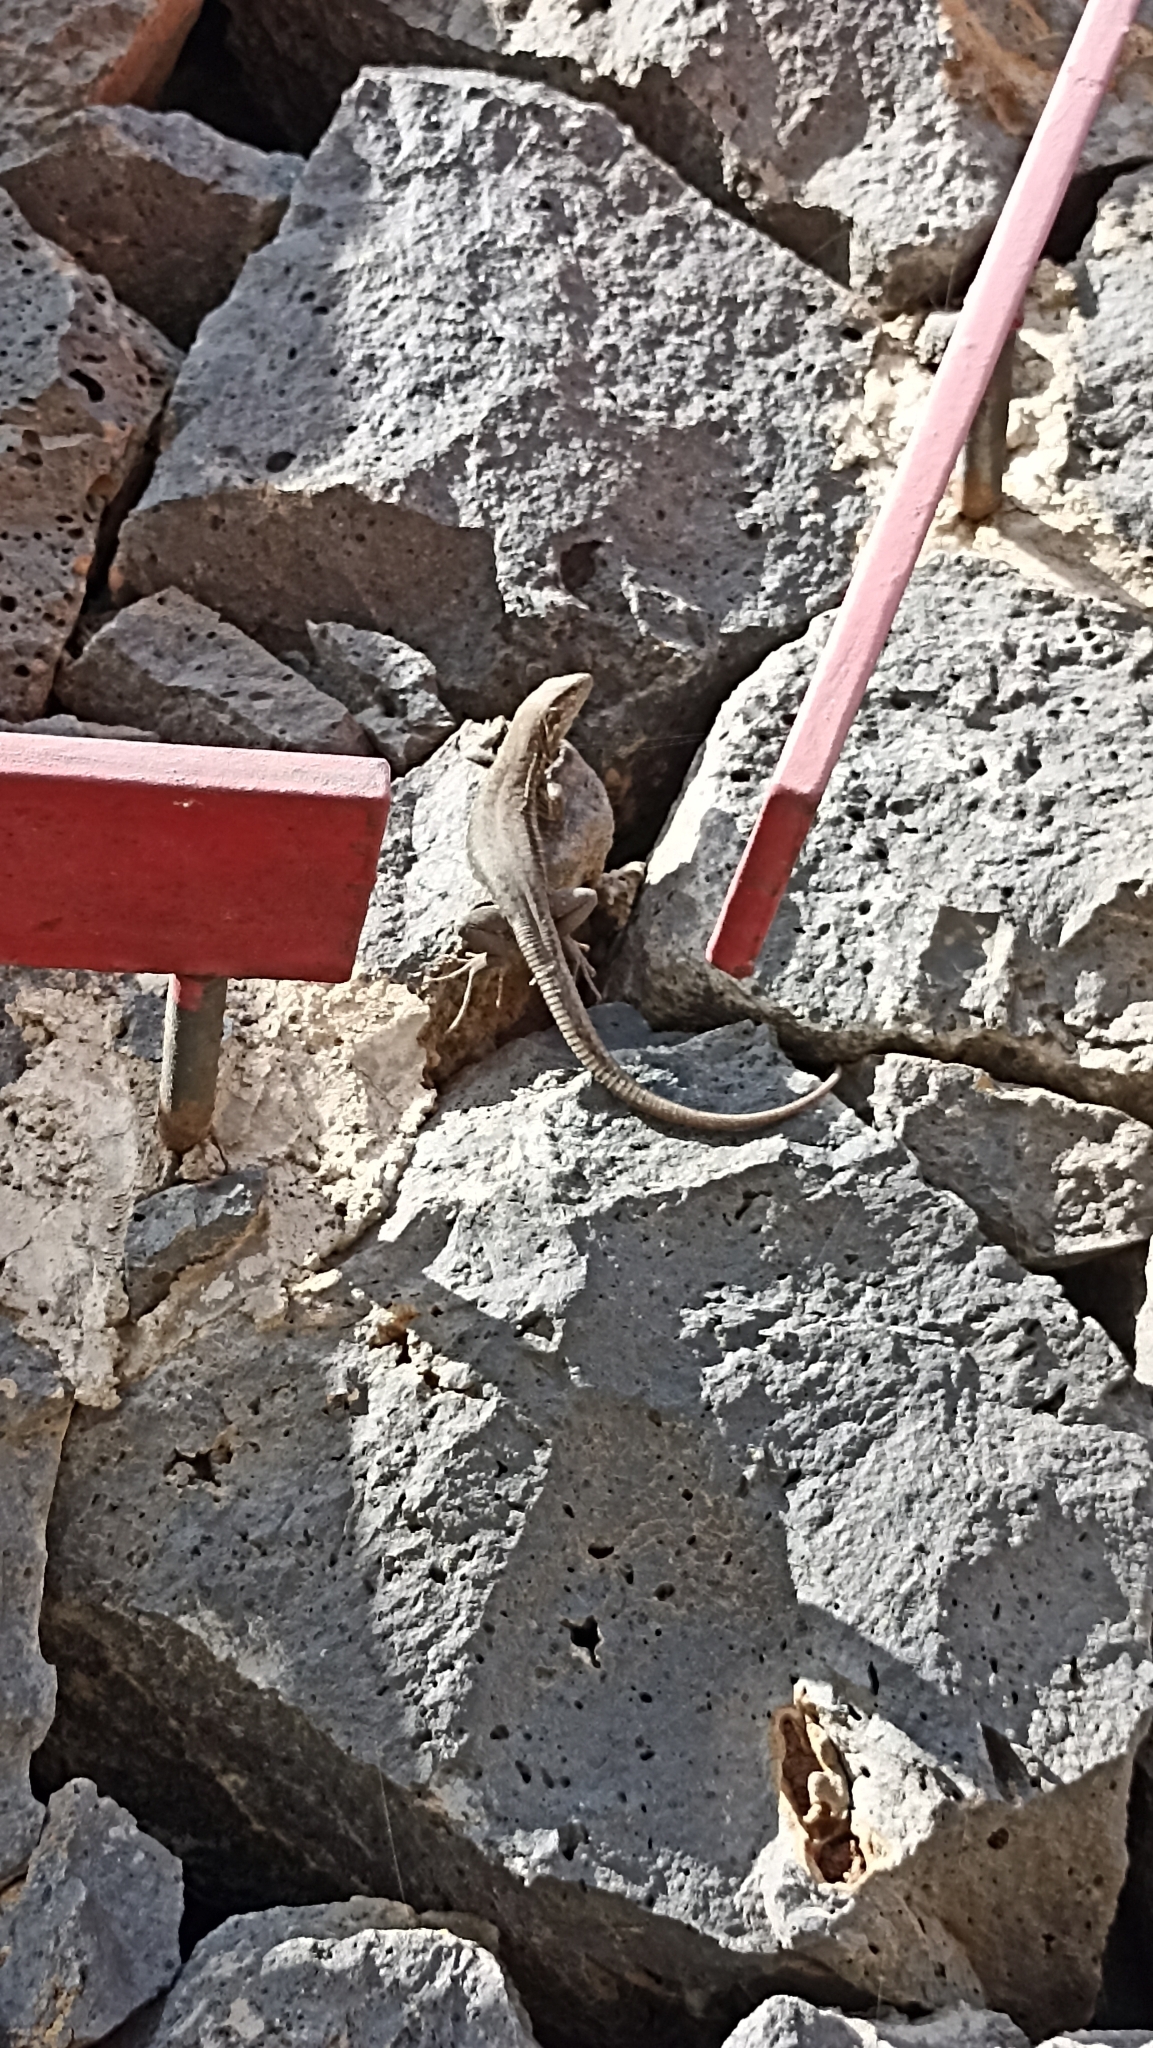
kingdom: Animalia
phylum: Chordata
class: Squamata
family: Lacertidae
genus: Gallotia
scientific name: Gallotia galloti
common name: Gallot's lizard
